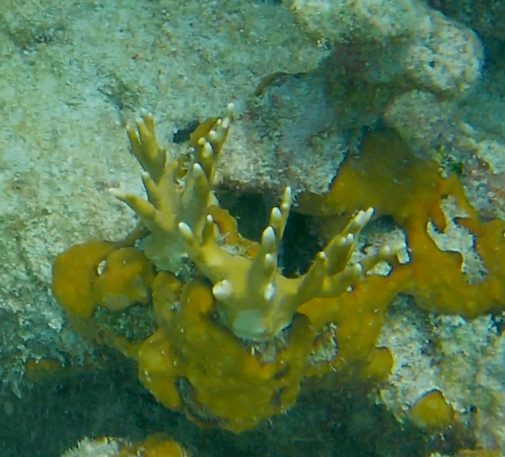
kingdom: Animalia
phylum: Cnidaria
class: Hydrozoa
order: Anthoathecata
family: Milleporidae
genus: Millepora
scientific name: Millepora alcicornis
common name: Branching fire coral
